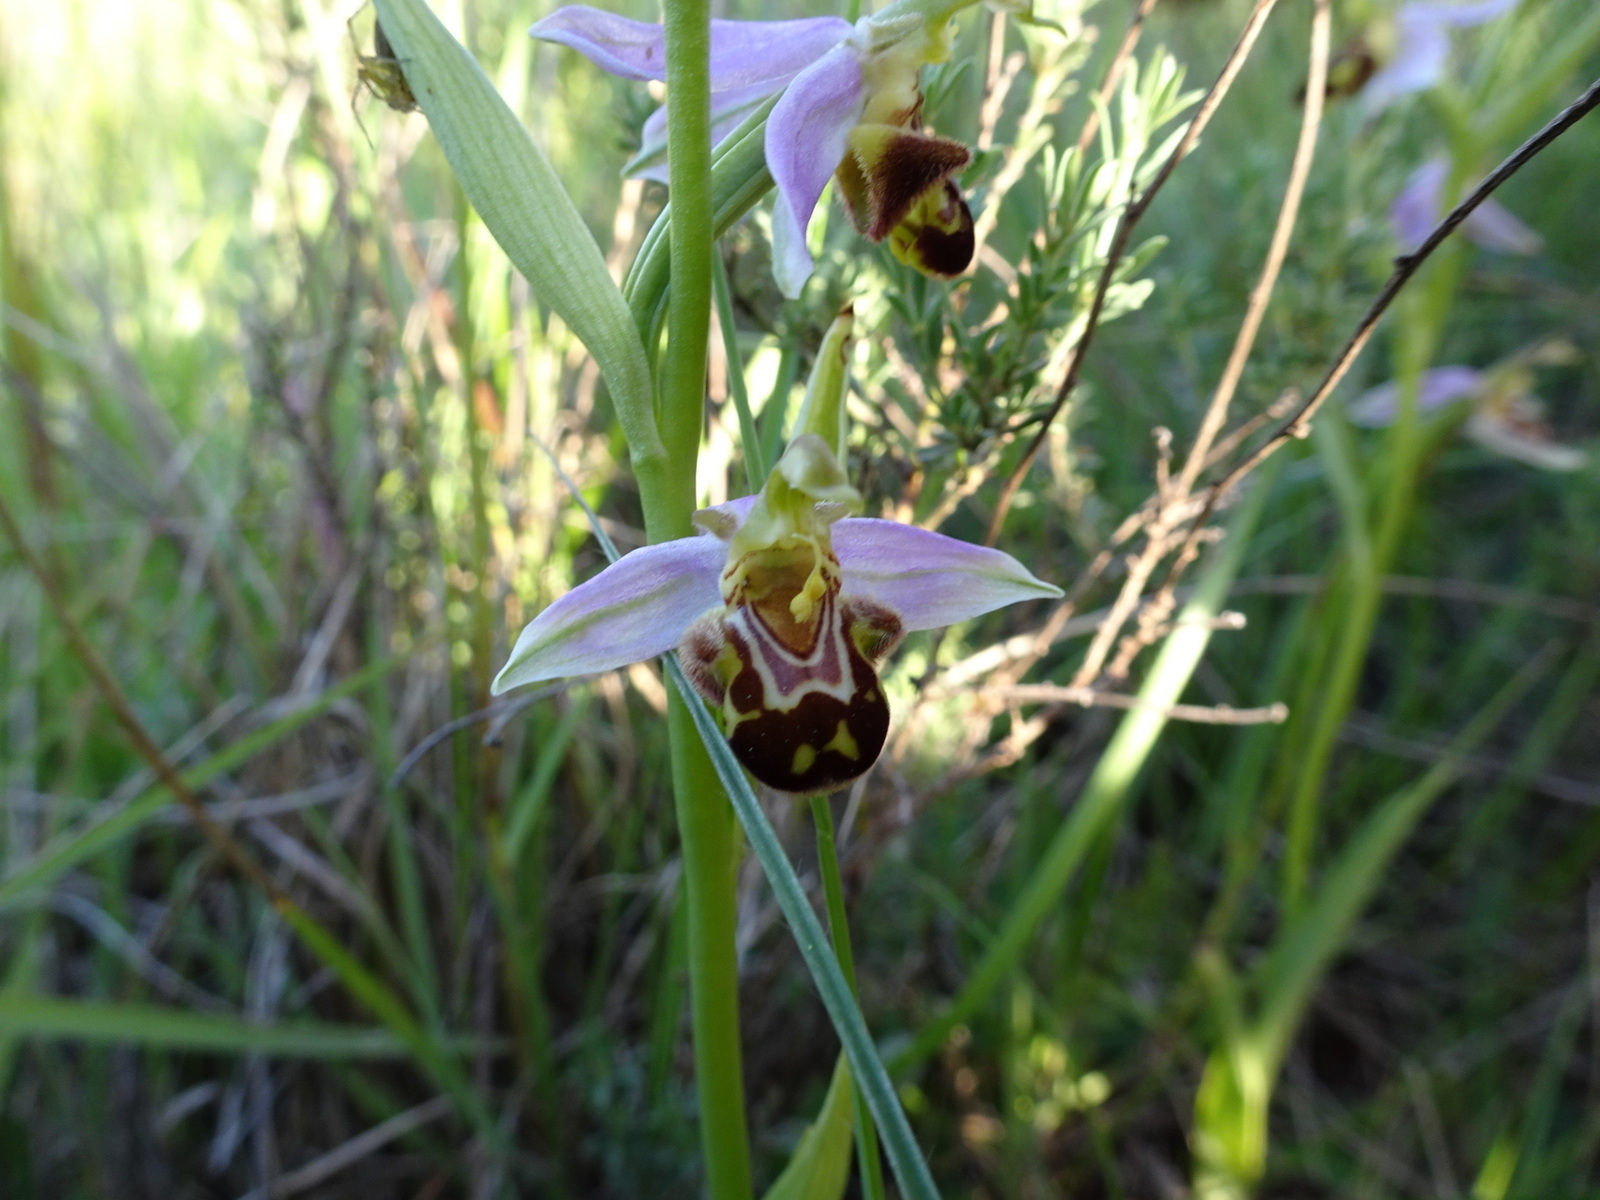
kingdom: Plantae
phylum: Tracheophyta
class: Liliopsida
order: Asparagales
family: Orchidaceae
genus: Ophrys
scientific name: Ophrys apifera
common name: Bee orchid
